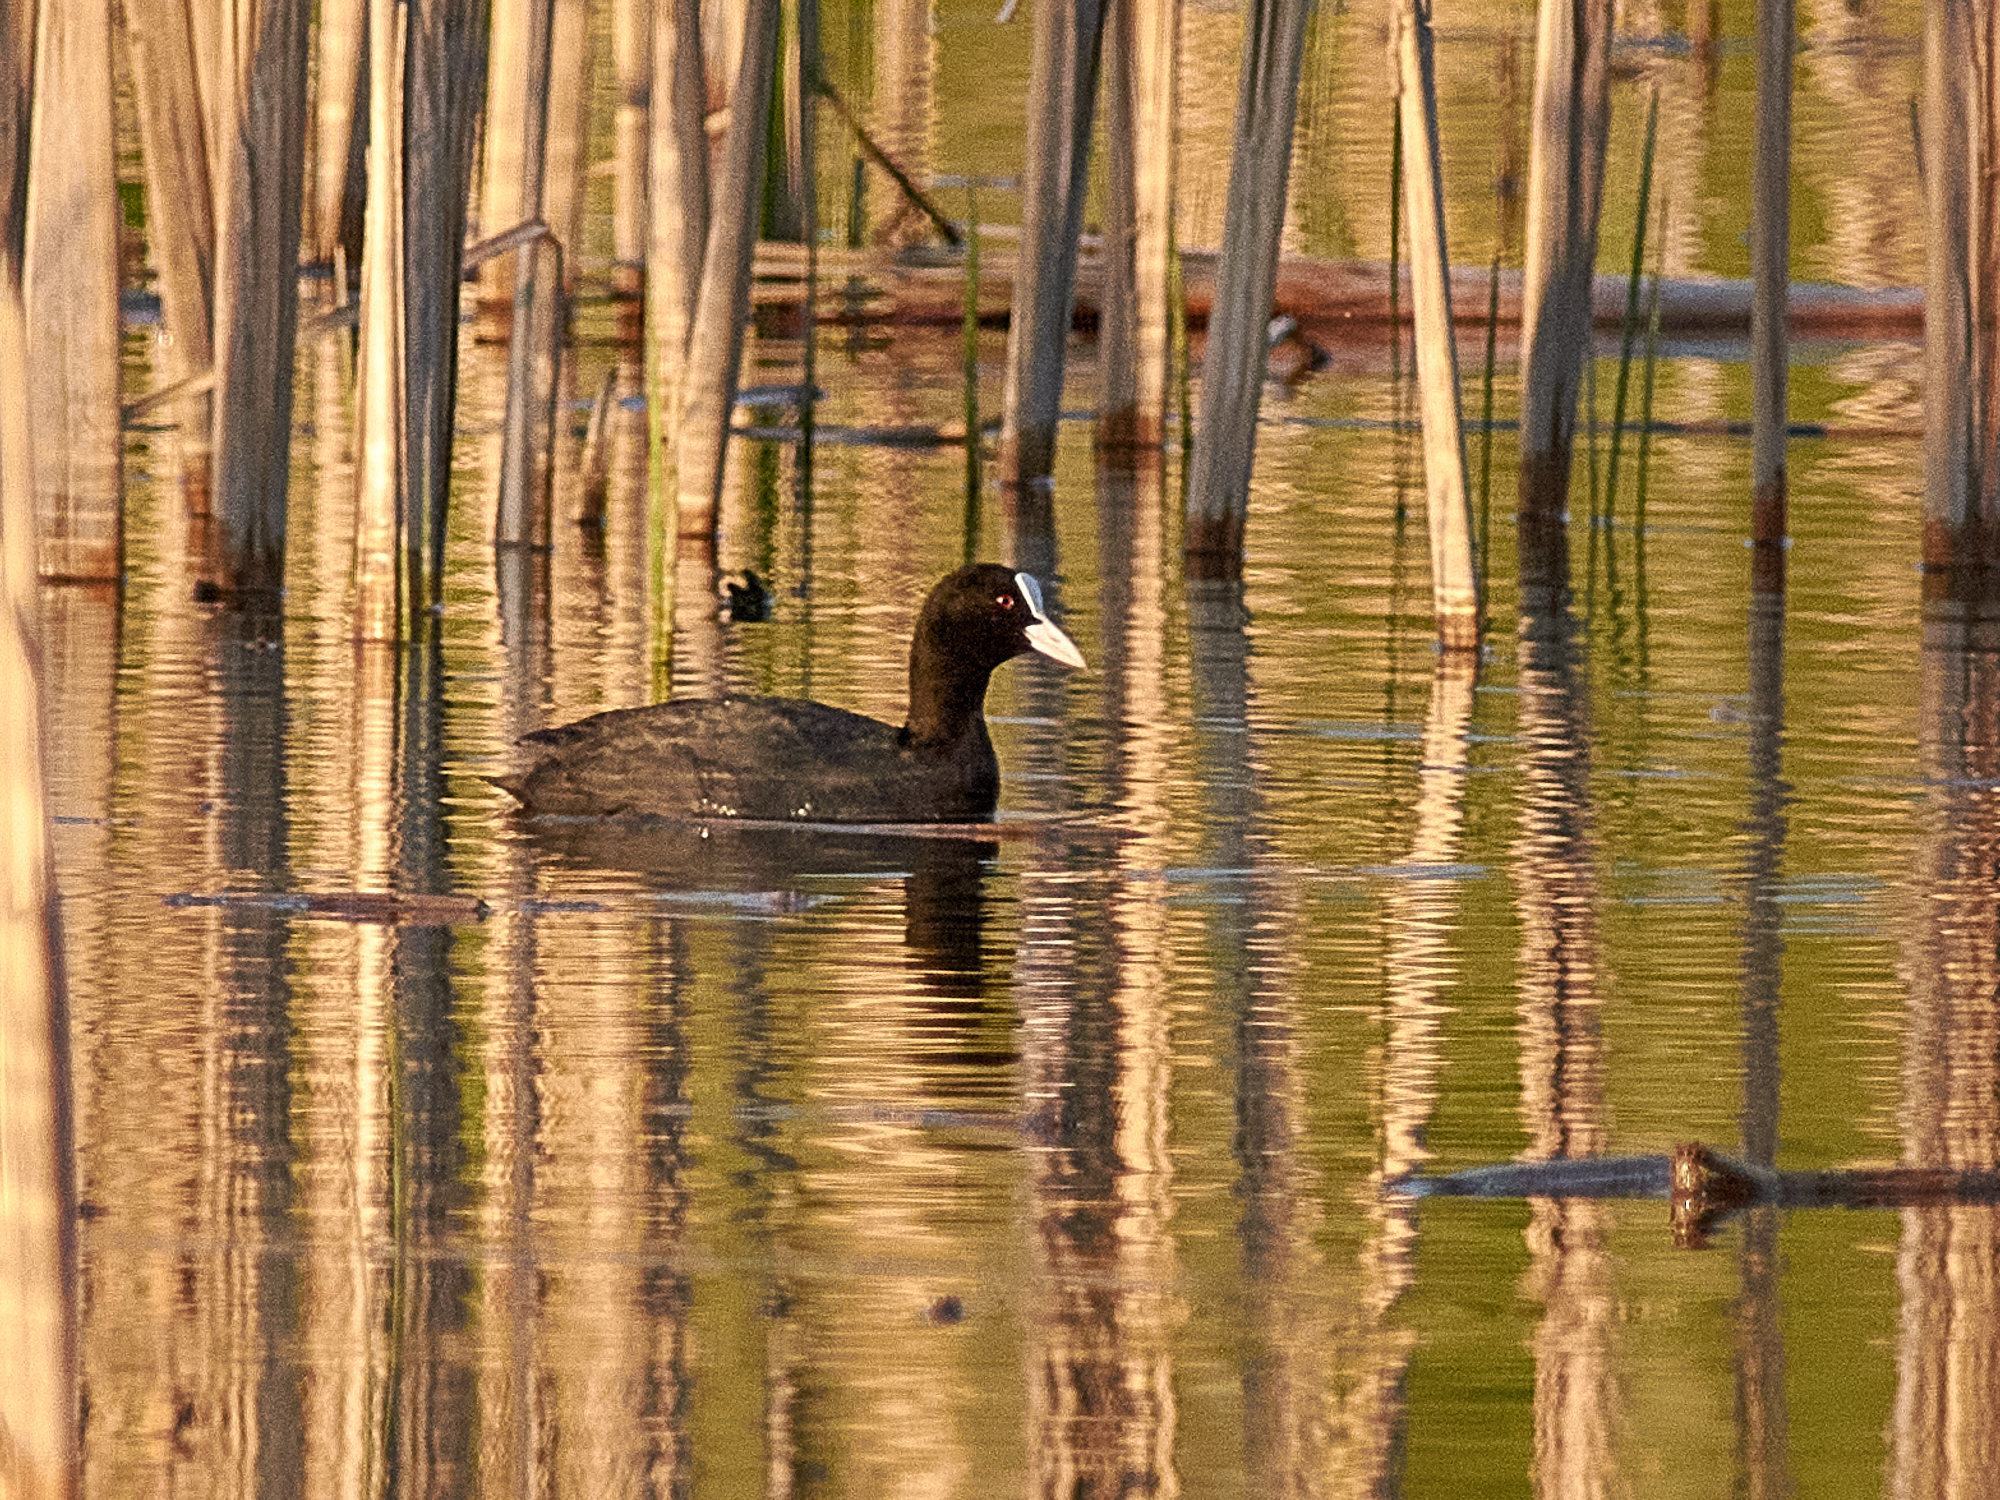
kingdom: Animalia
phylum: Chordata
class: Aves
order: Gruiformes
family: Rallidae
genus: Fulica
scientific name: Fulica atra
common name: Eurasian coot
